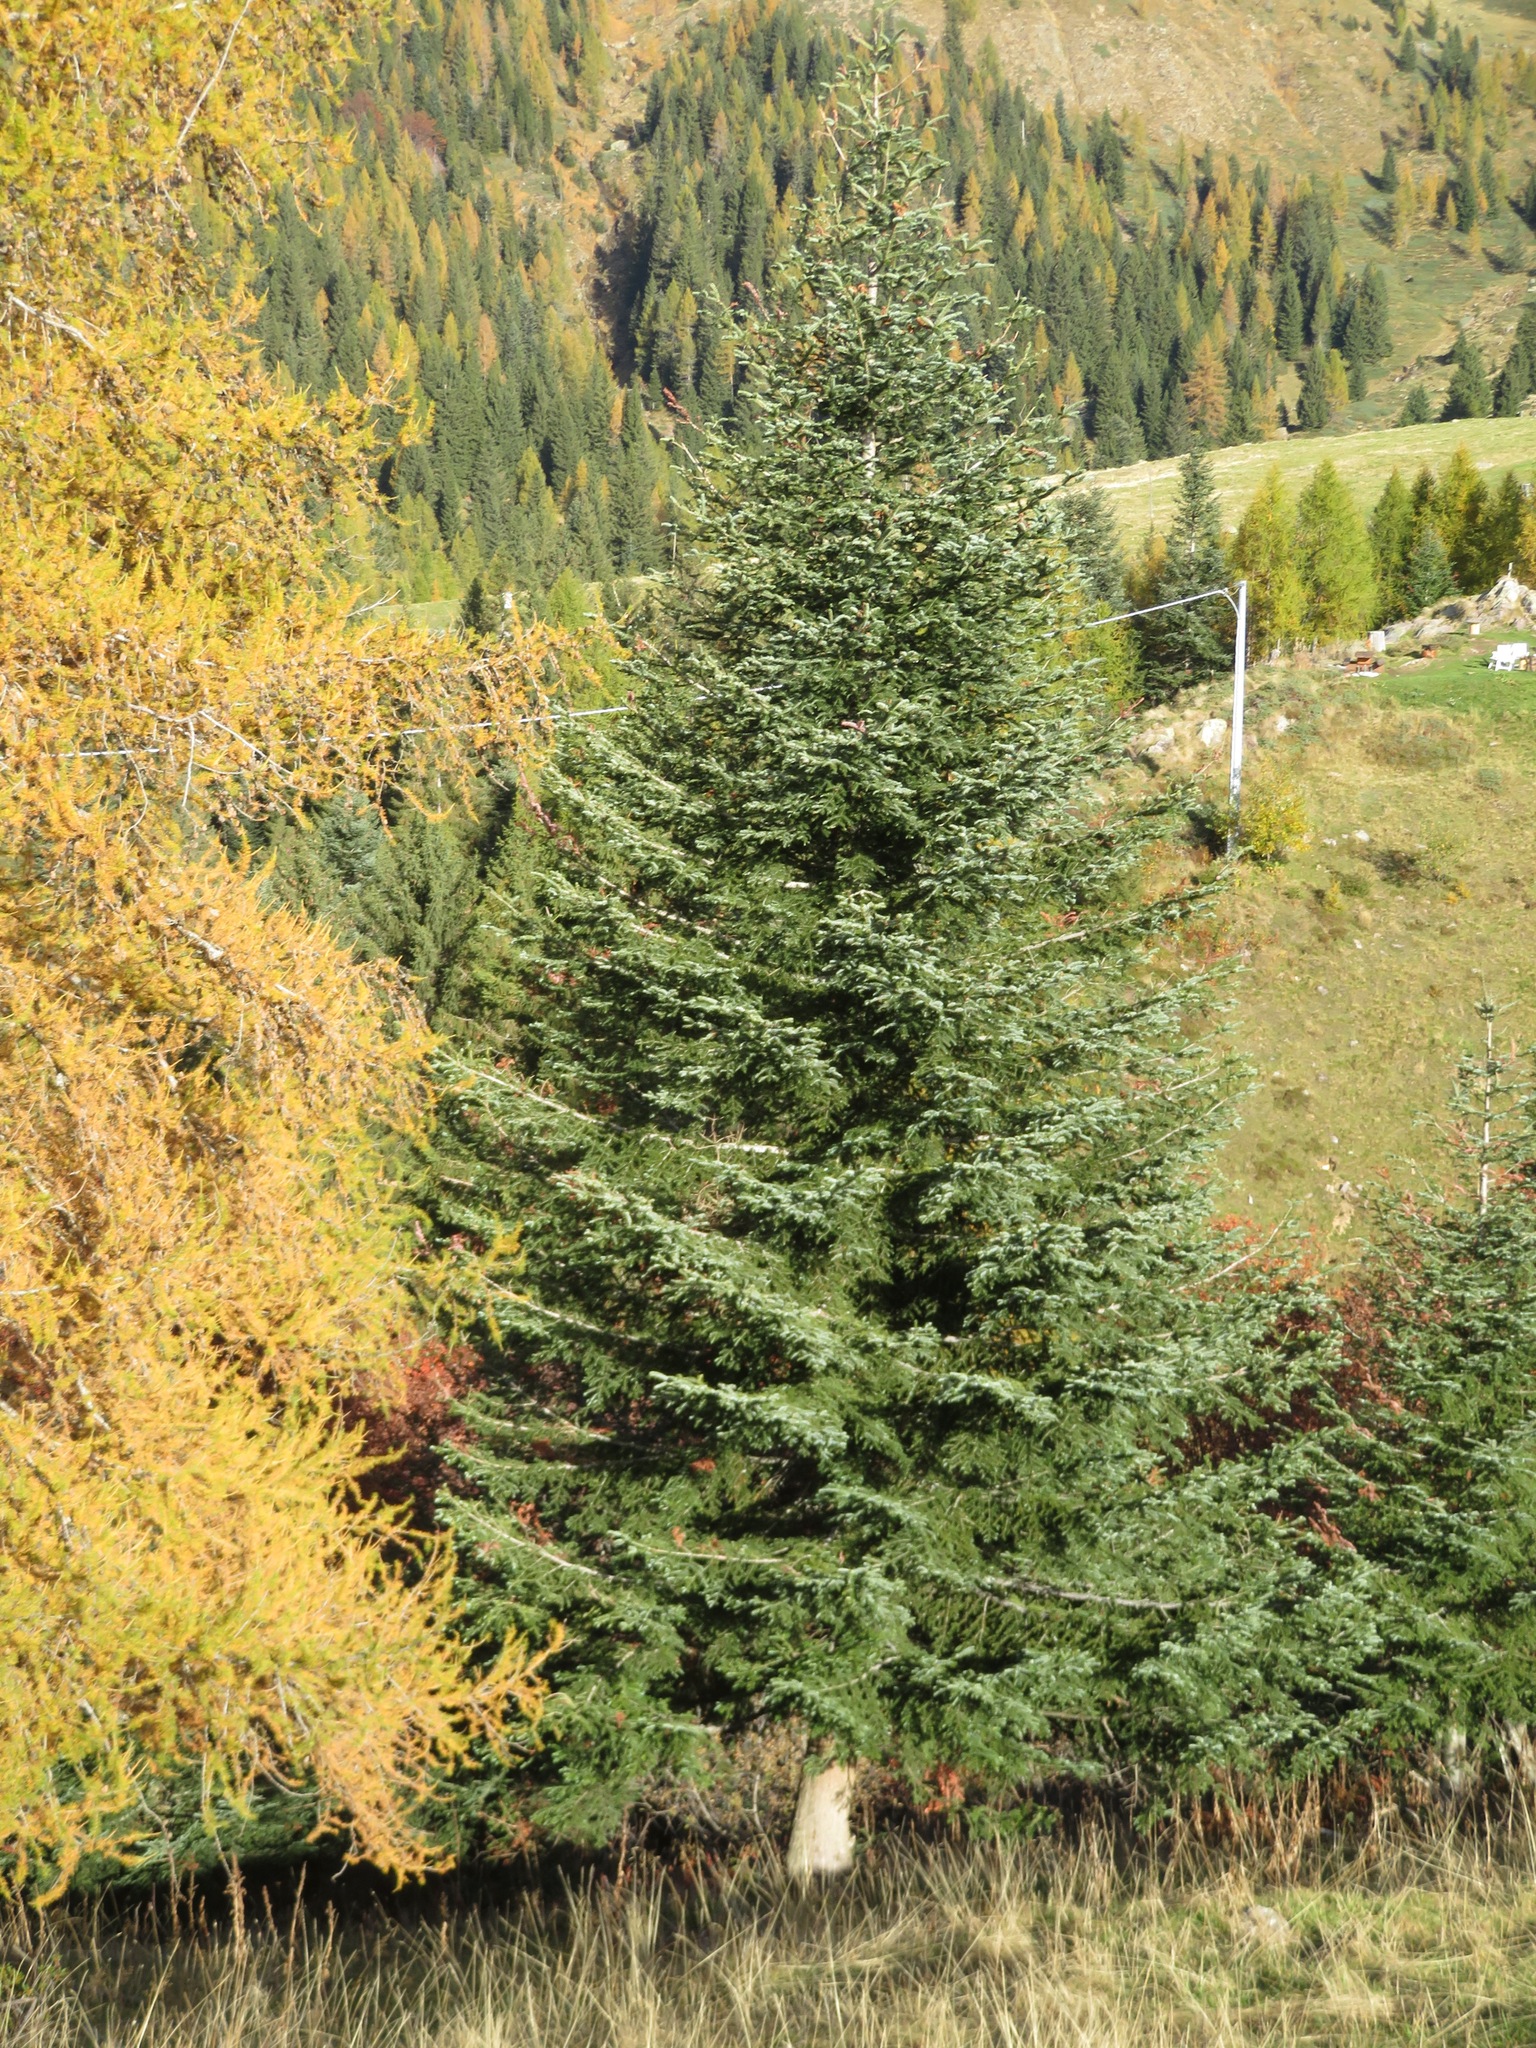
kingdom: Plantae
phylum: Tracheophyta
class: Pinopsida
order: Pinales
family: Pinaceae
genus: Abies
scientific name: Abies alba
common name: Silver fir
